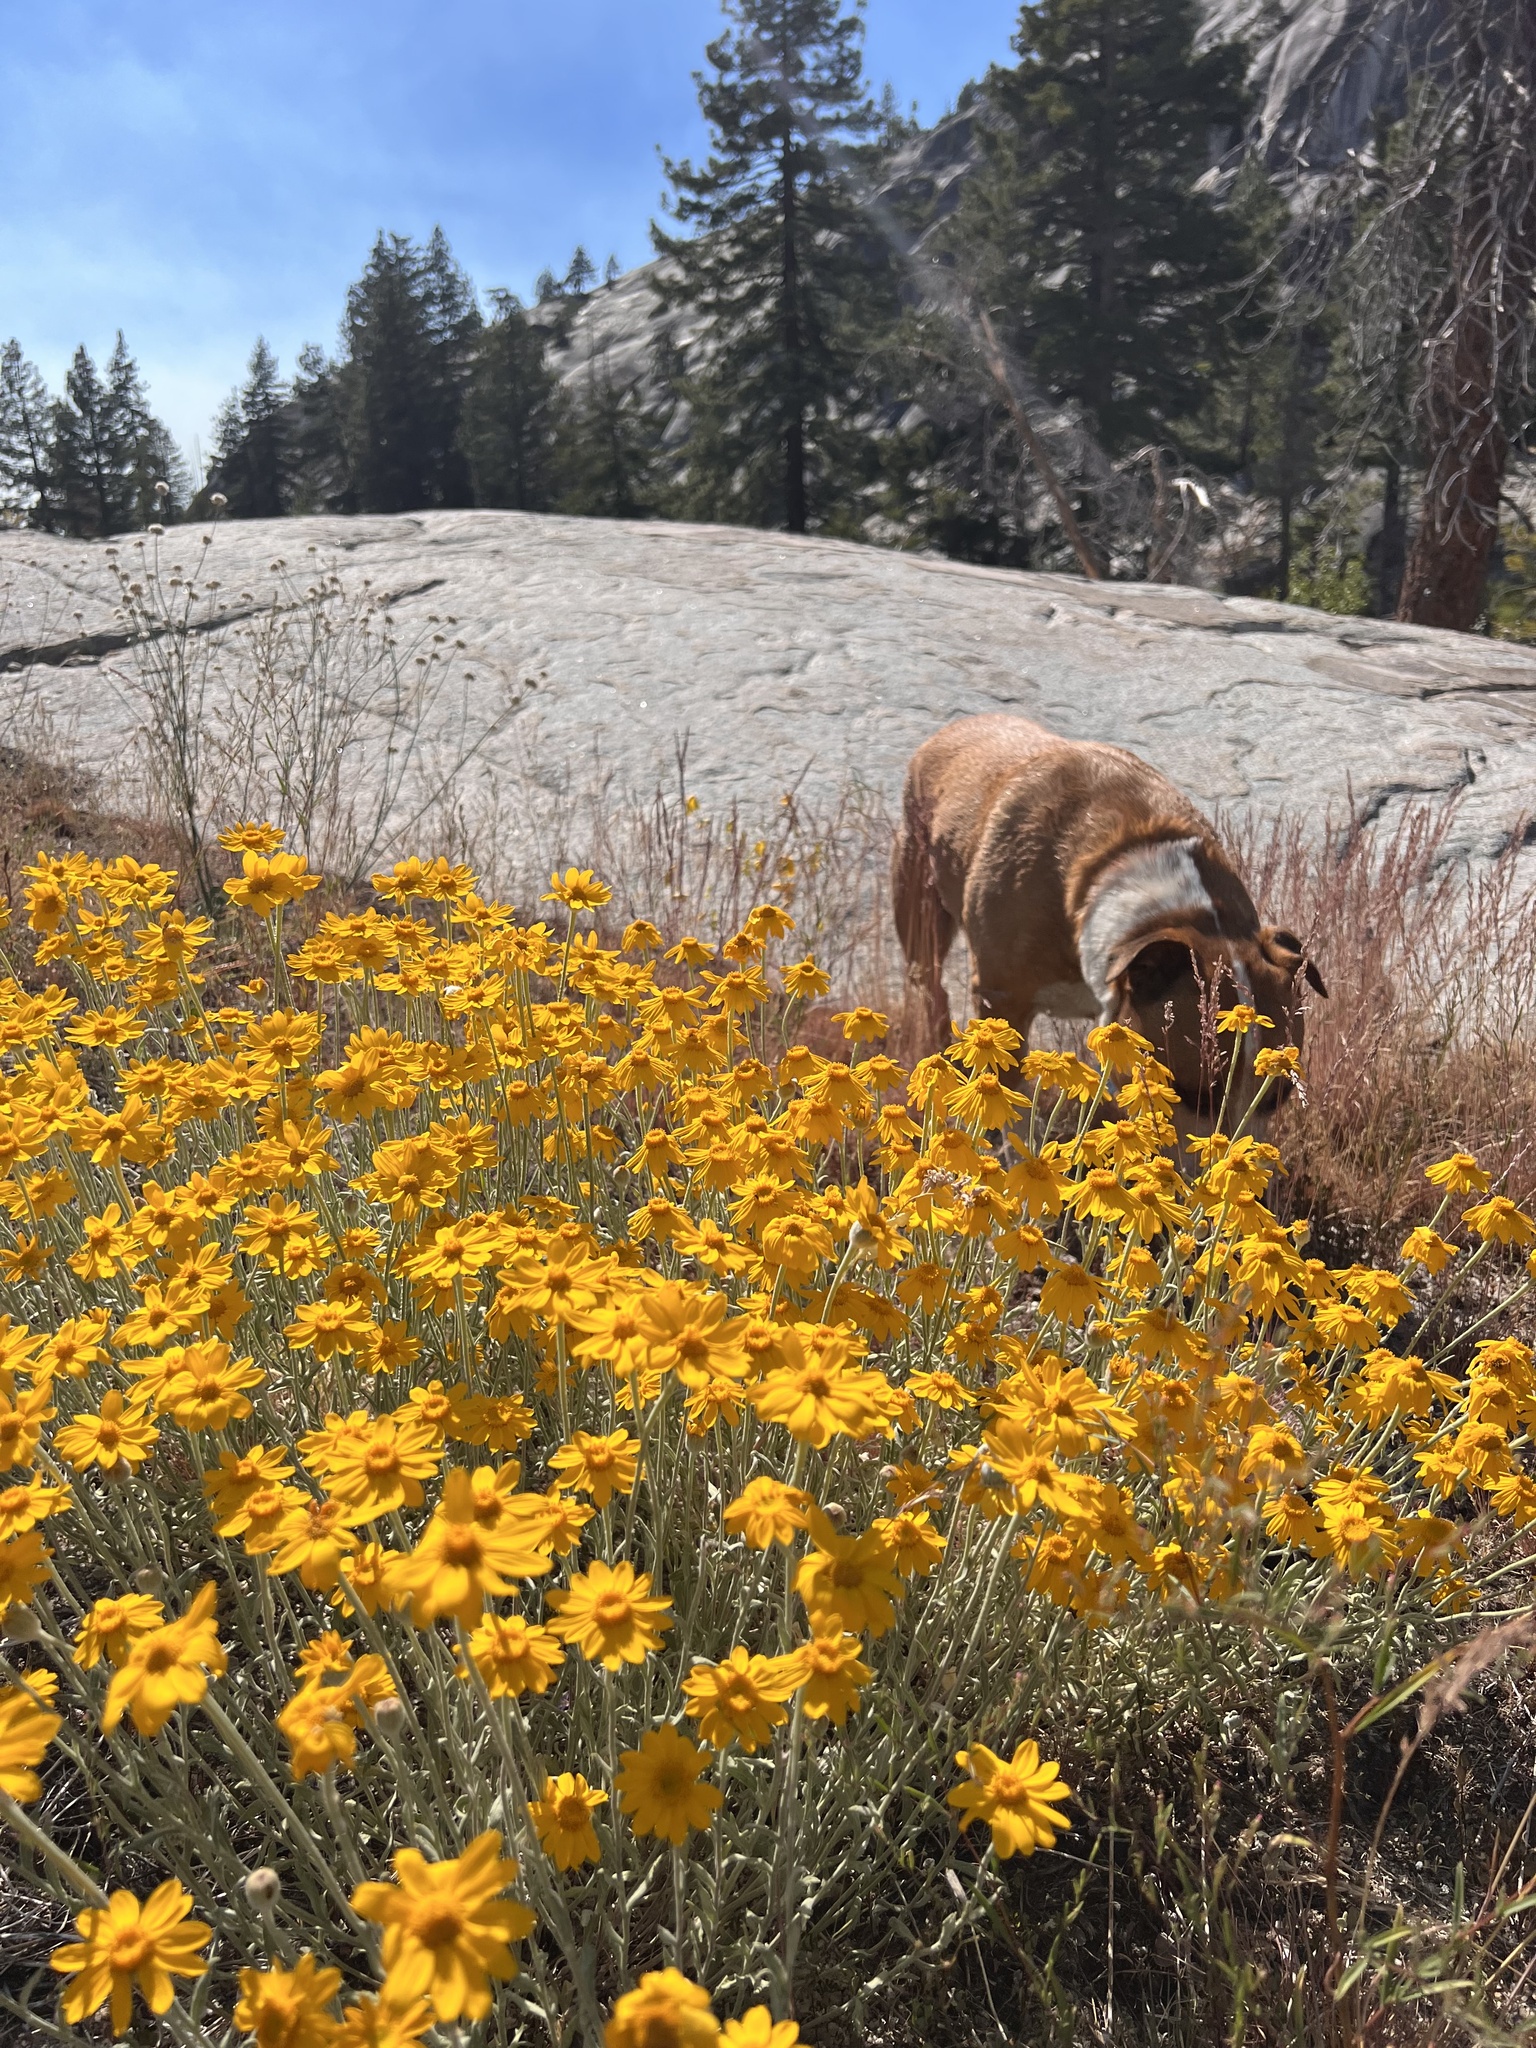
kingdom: Plantae
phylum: Tracheophyta
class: Magnoliopsida
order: Asterales
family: Asteraceae
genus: Eriophyllum
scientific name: Eriophyllum lanatum
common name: Common woolly-sunflower
